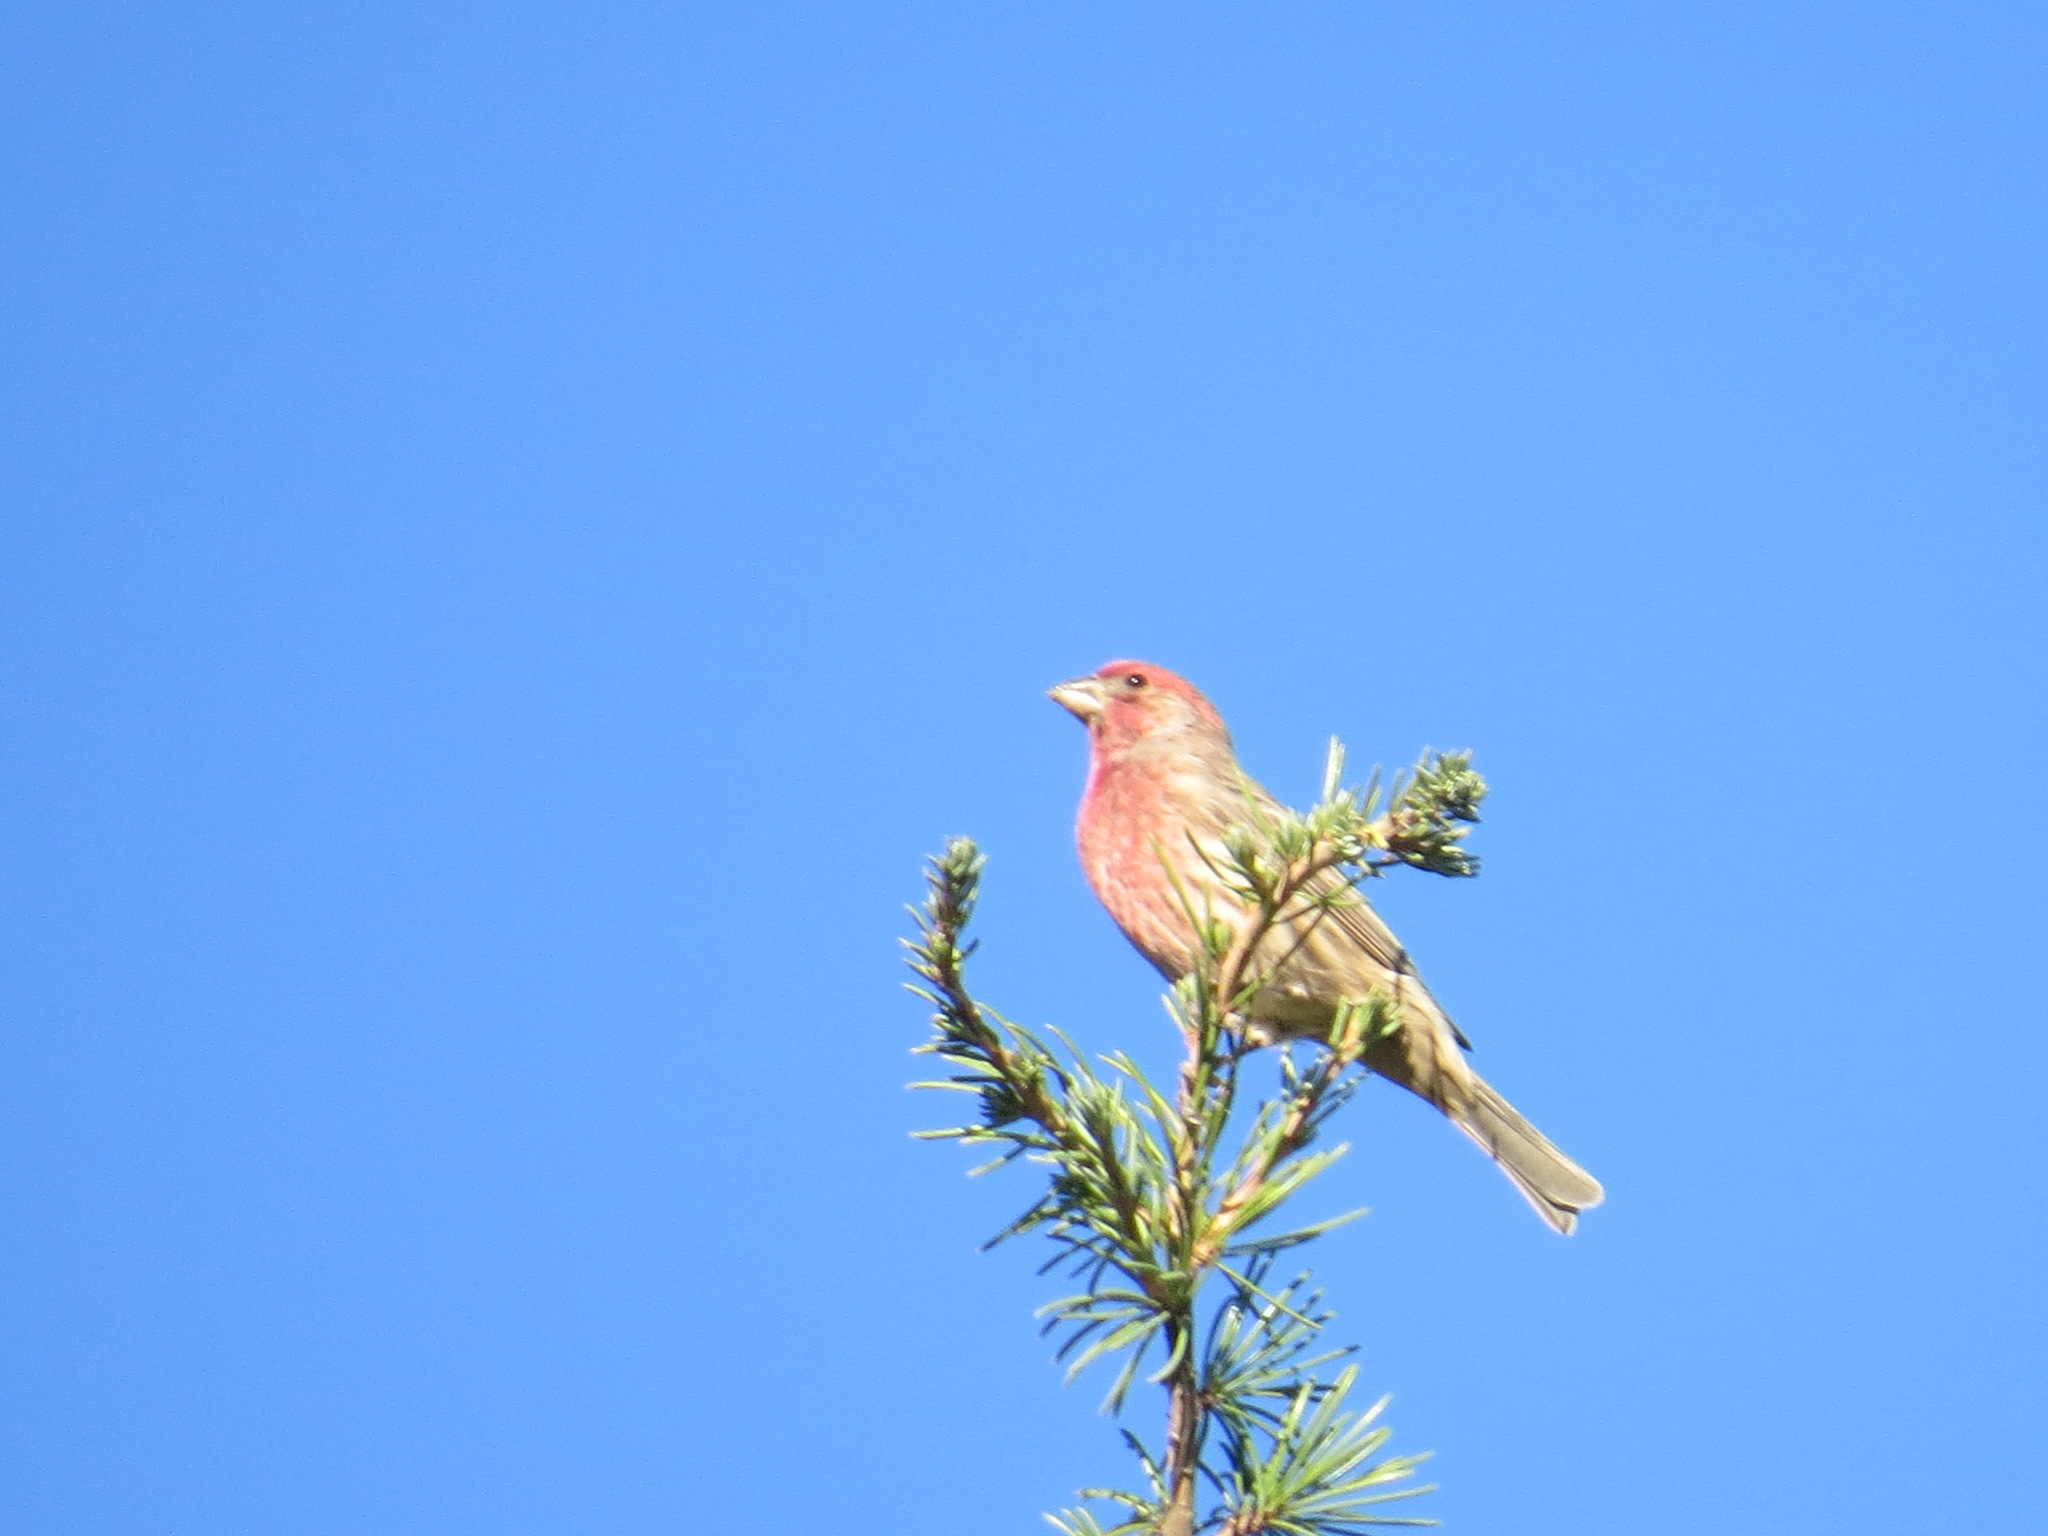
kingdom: Animalia
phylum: Chordata
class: Aves
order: Passeriformes
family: Fringillidae
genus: Haemorhous
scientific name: Haemorhous mexicanus
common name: House finch
